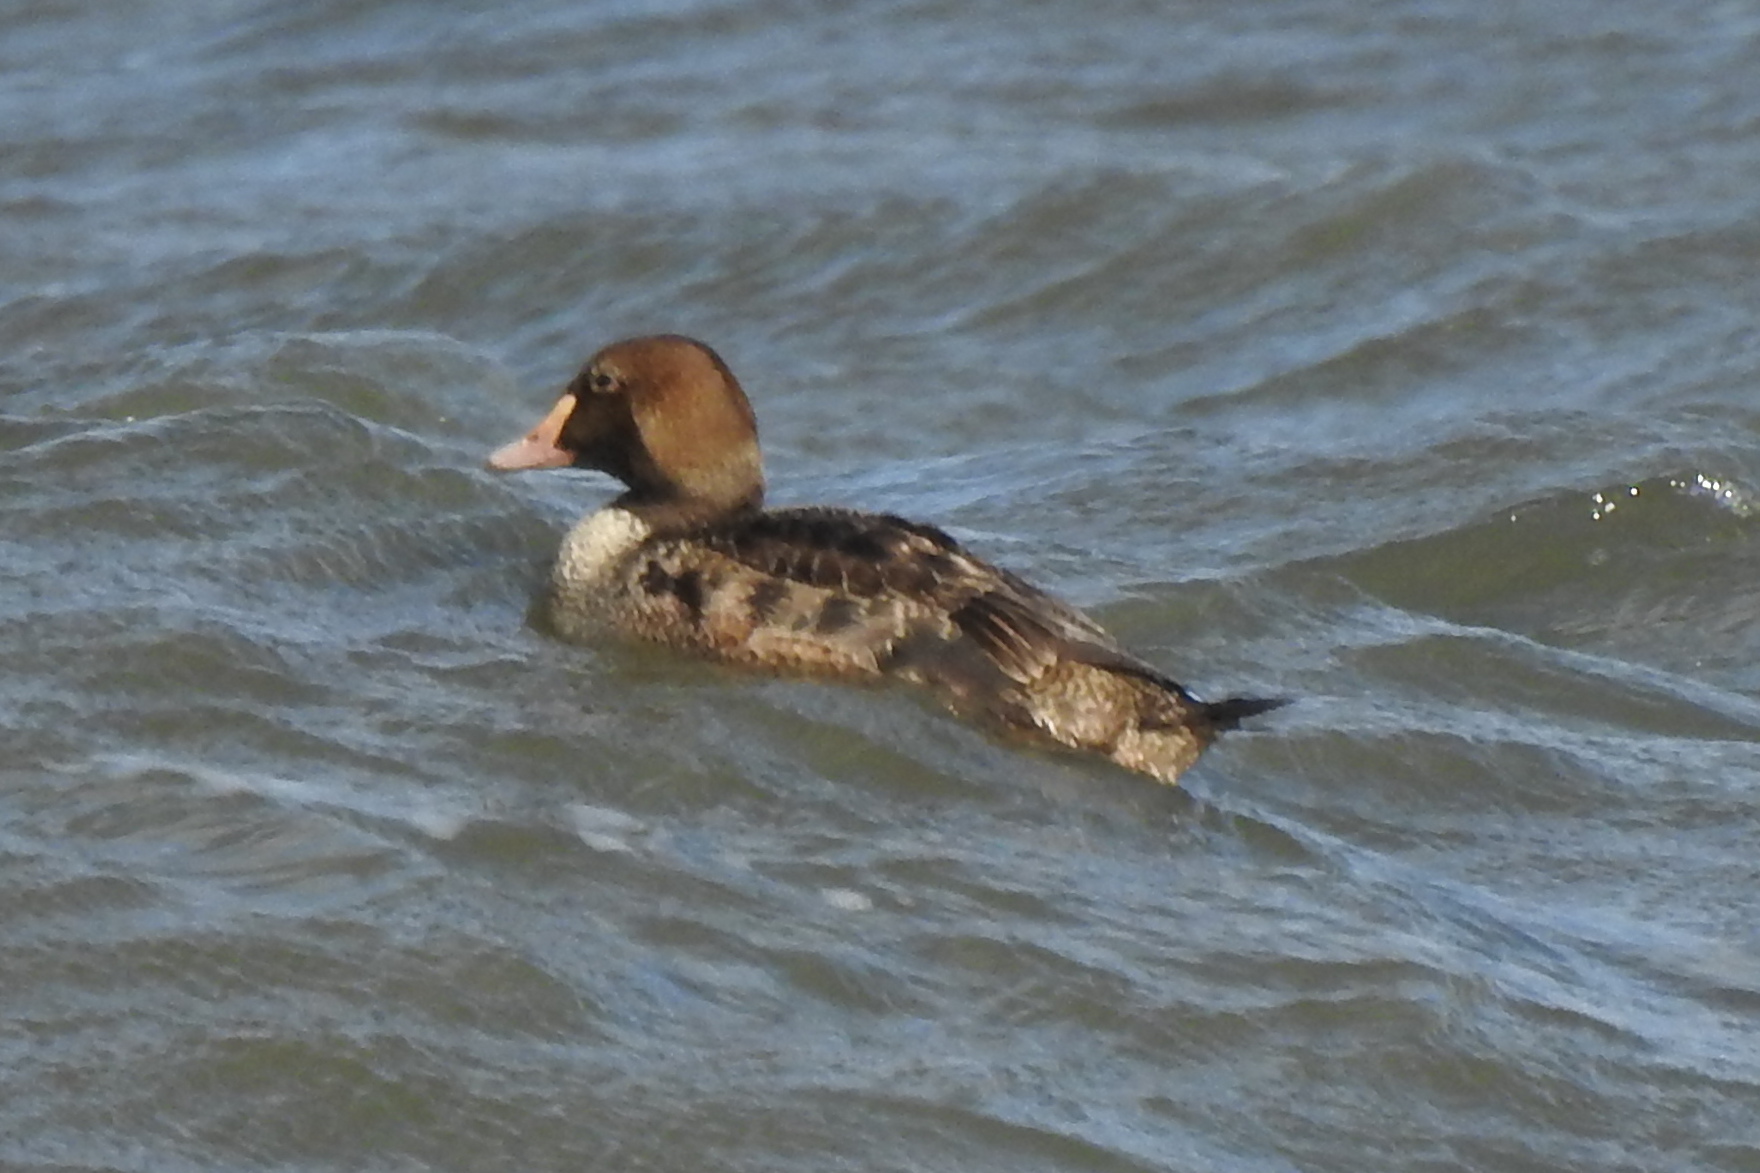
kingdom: Animalia
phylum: Chordata
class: Aves
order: Anseriformes
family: Anatidae
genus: Somateria
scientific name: Somateria spectabilis
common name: King eider
